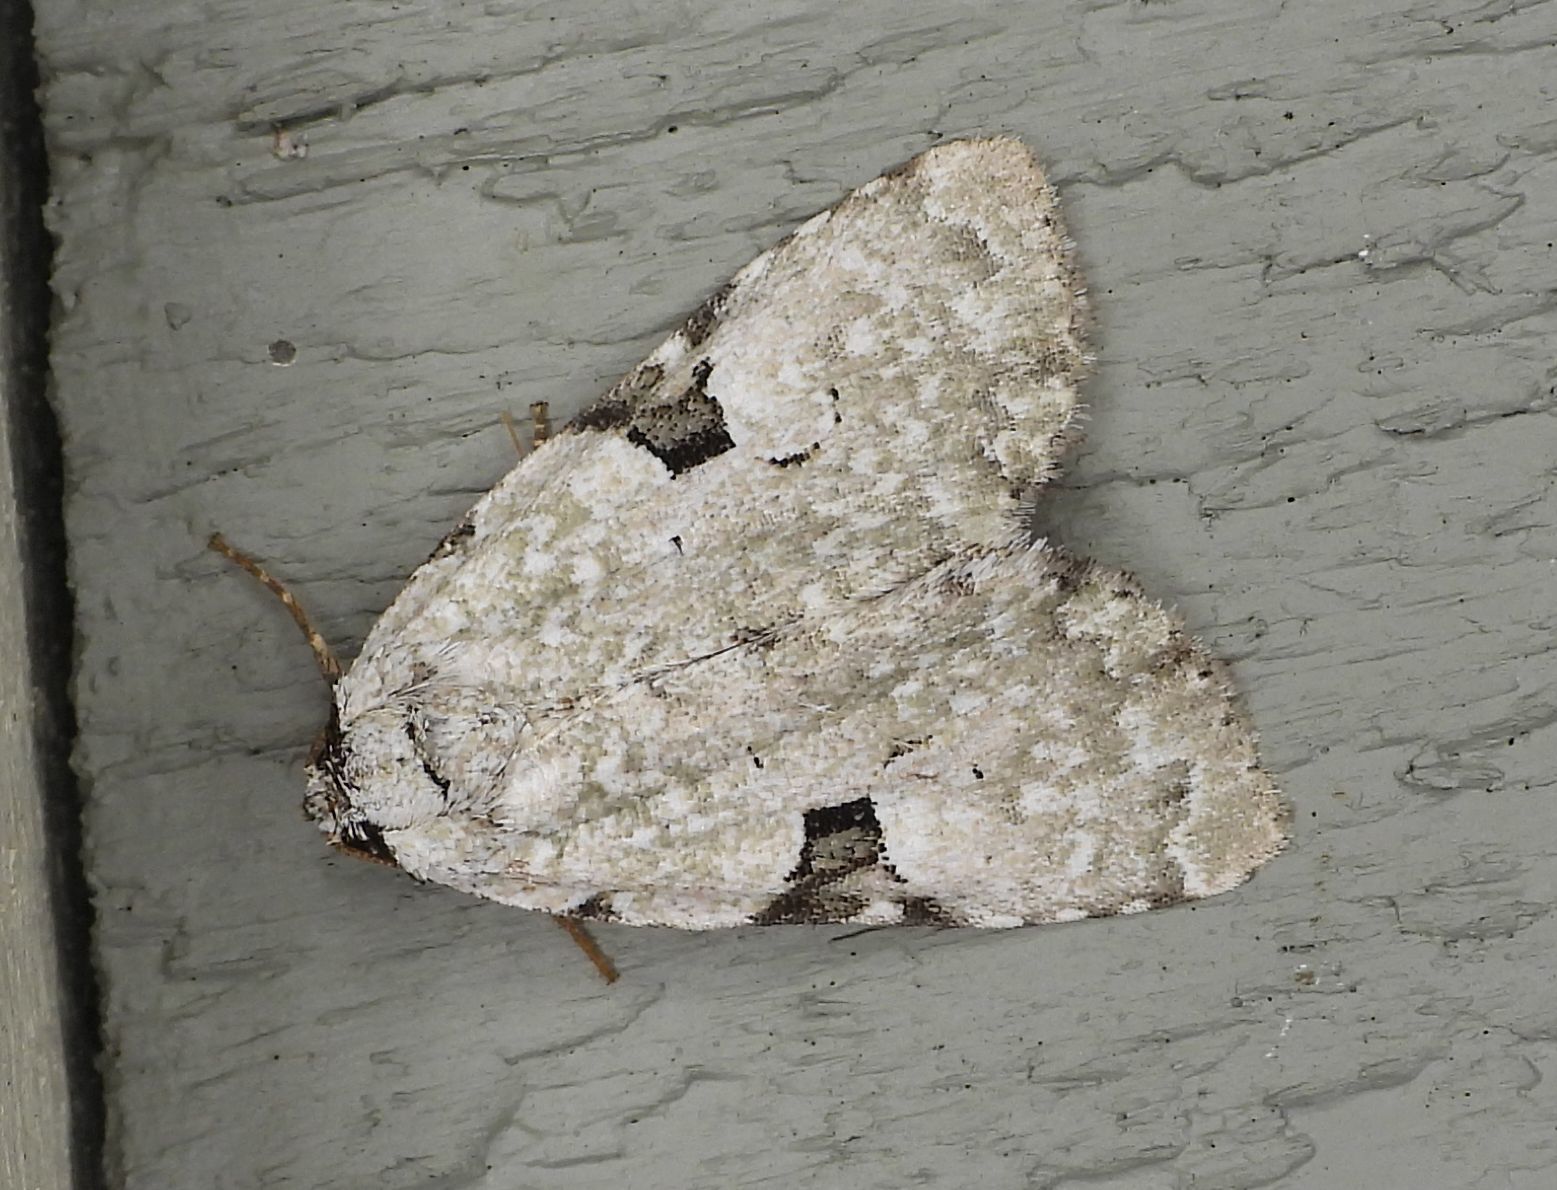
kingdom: Animalia
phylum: Arthropoda
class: Insecta
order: Lepidoptera
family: Noctuidae
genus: Leuconycta
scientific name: Leuconycta diphteroides
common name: Green leuconycta moth
